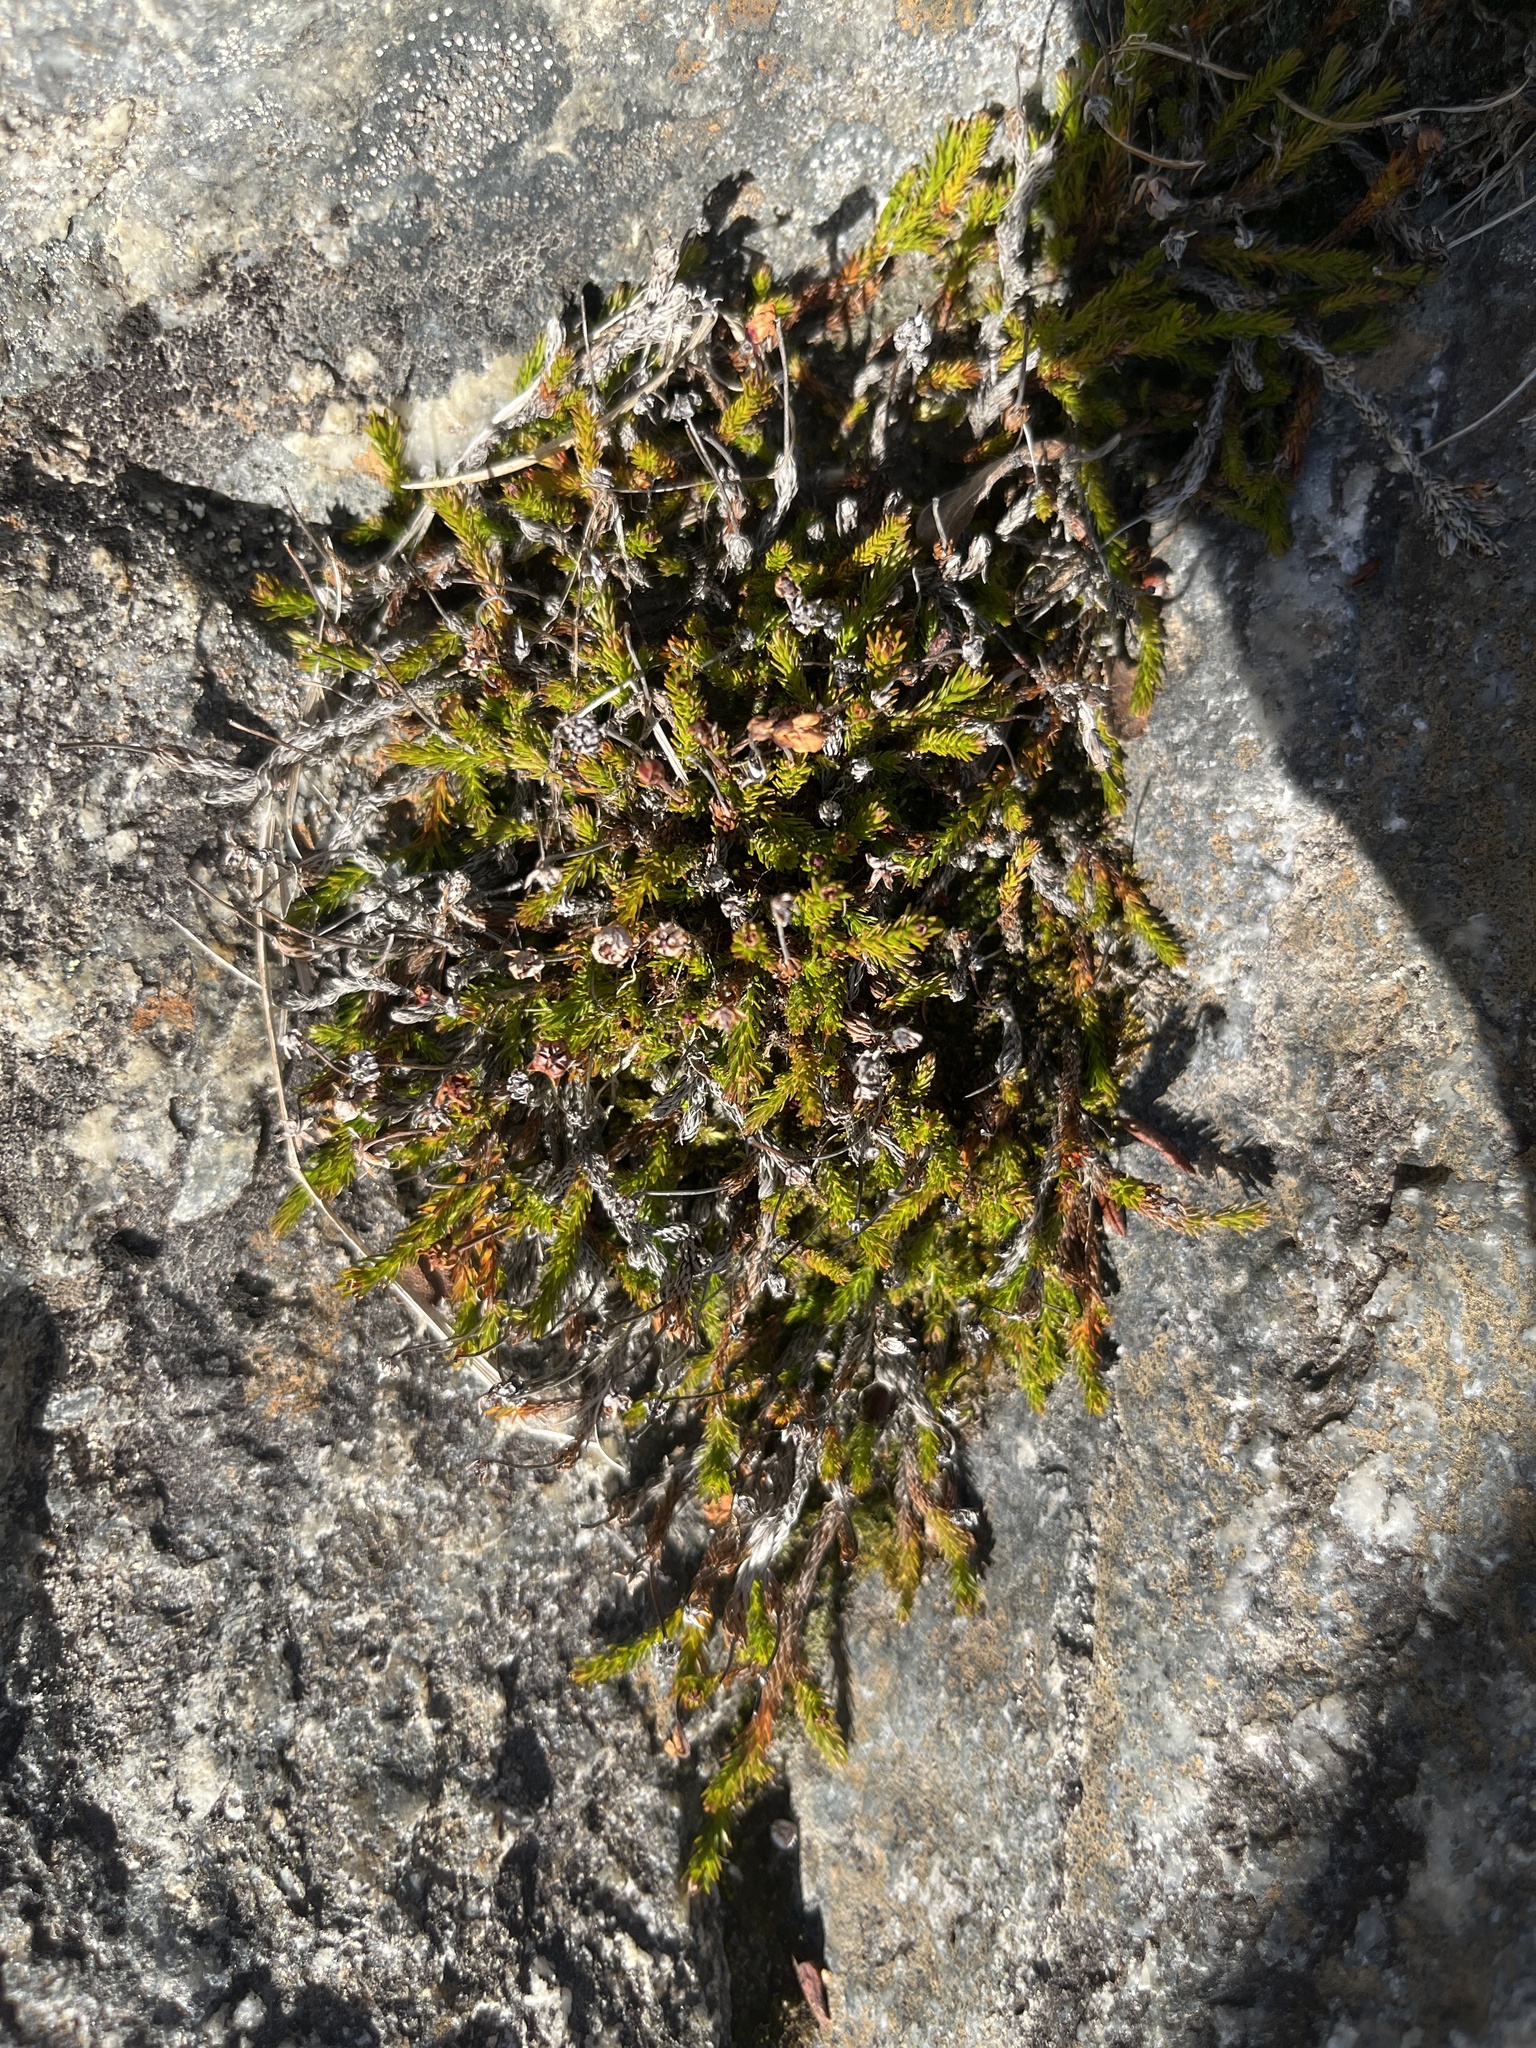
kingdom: Plantae
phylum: Tracheophyta
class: Magnoliopsida
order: Ericales
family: Ericaceae
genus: Harrimanella
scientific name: Harrimanella hypnoides
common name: Moss bell heather
